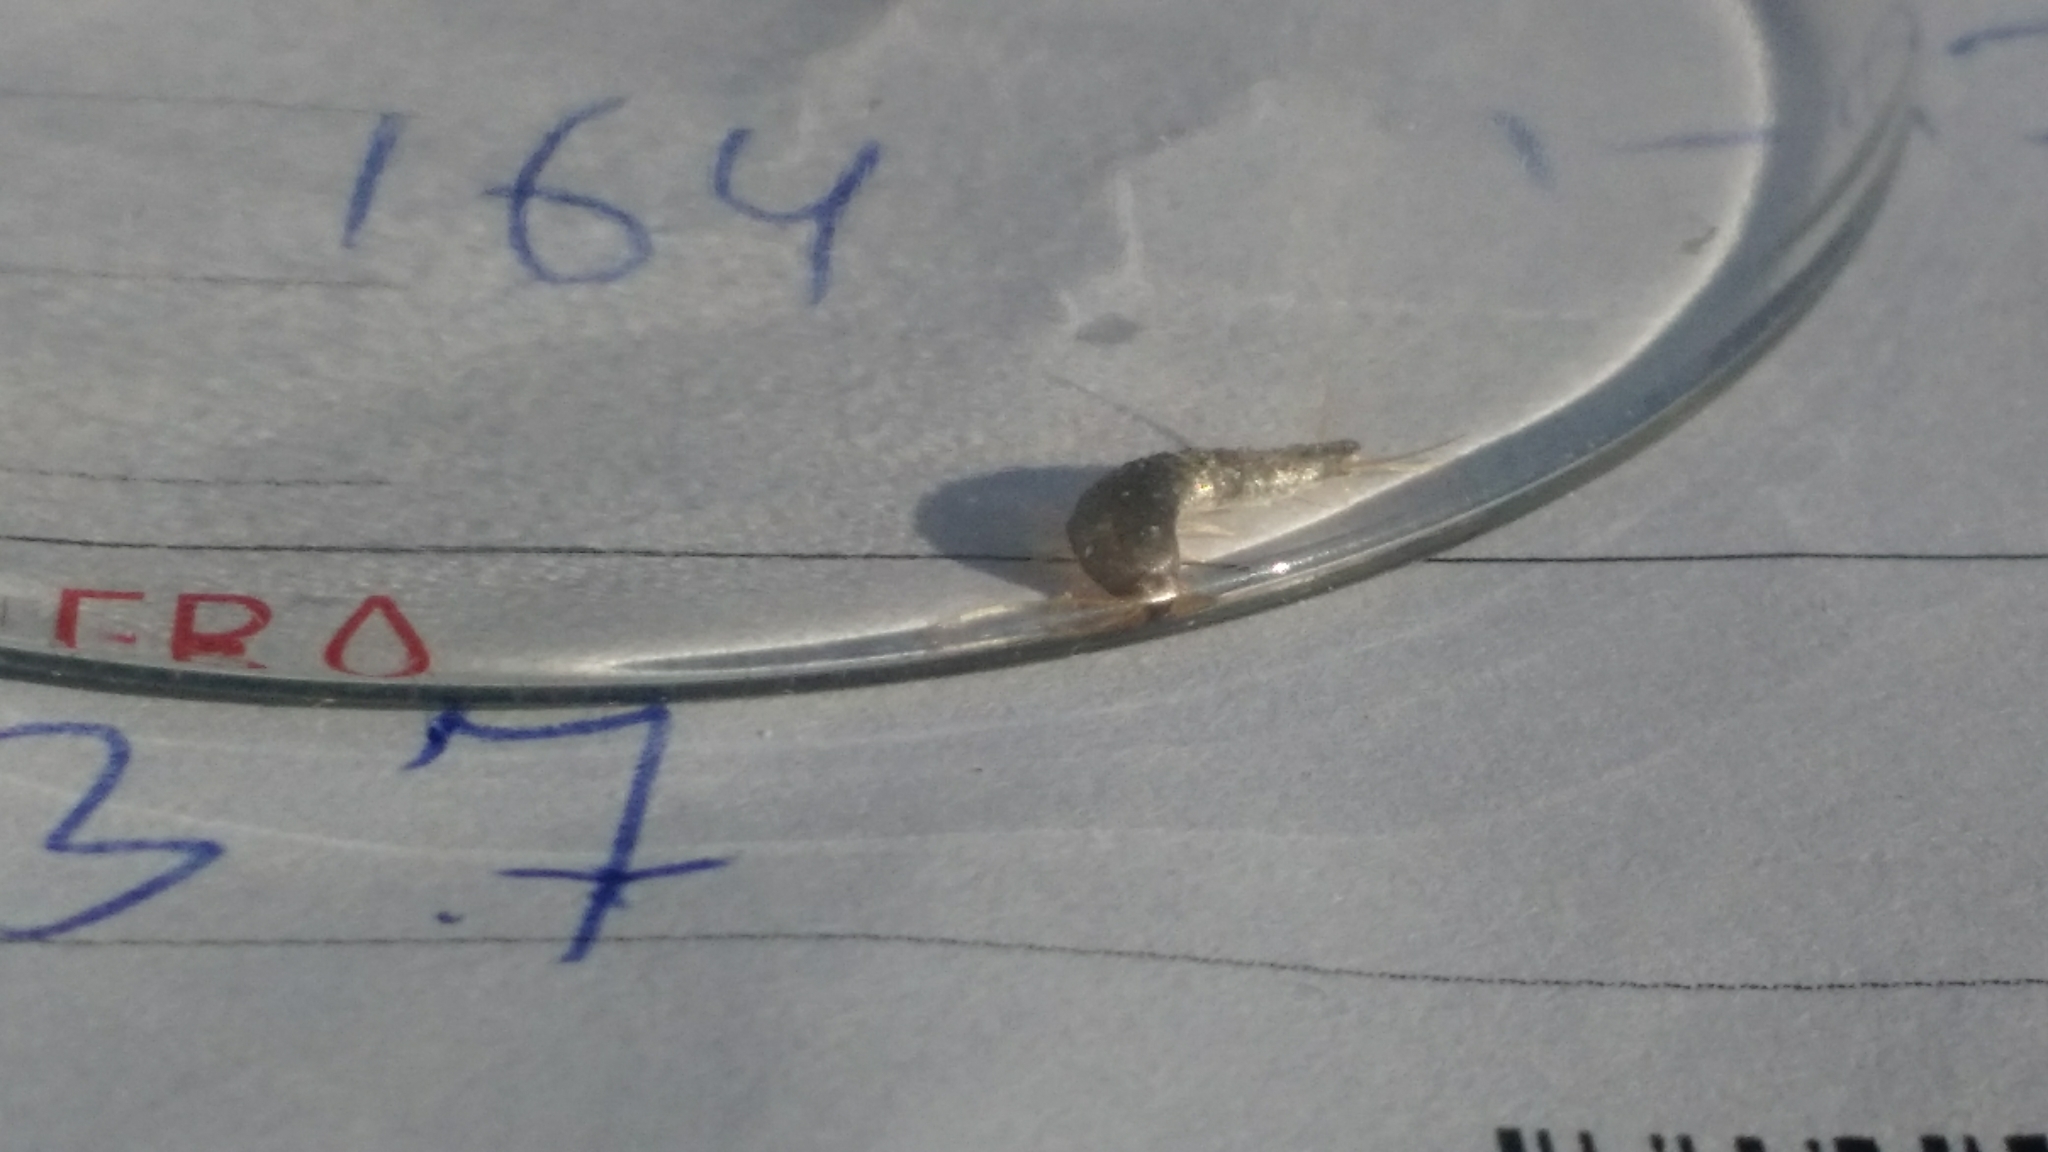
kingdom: Animalia
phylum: Arthropoda
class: Insecta
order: Zygentoma
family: Lepismatidae
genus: Lepisma
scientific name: Lepisma saccharinum
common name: Silverfish
